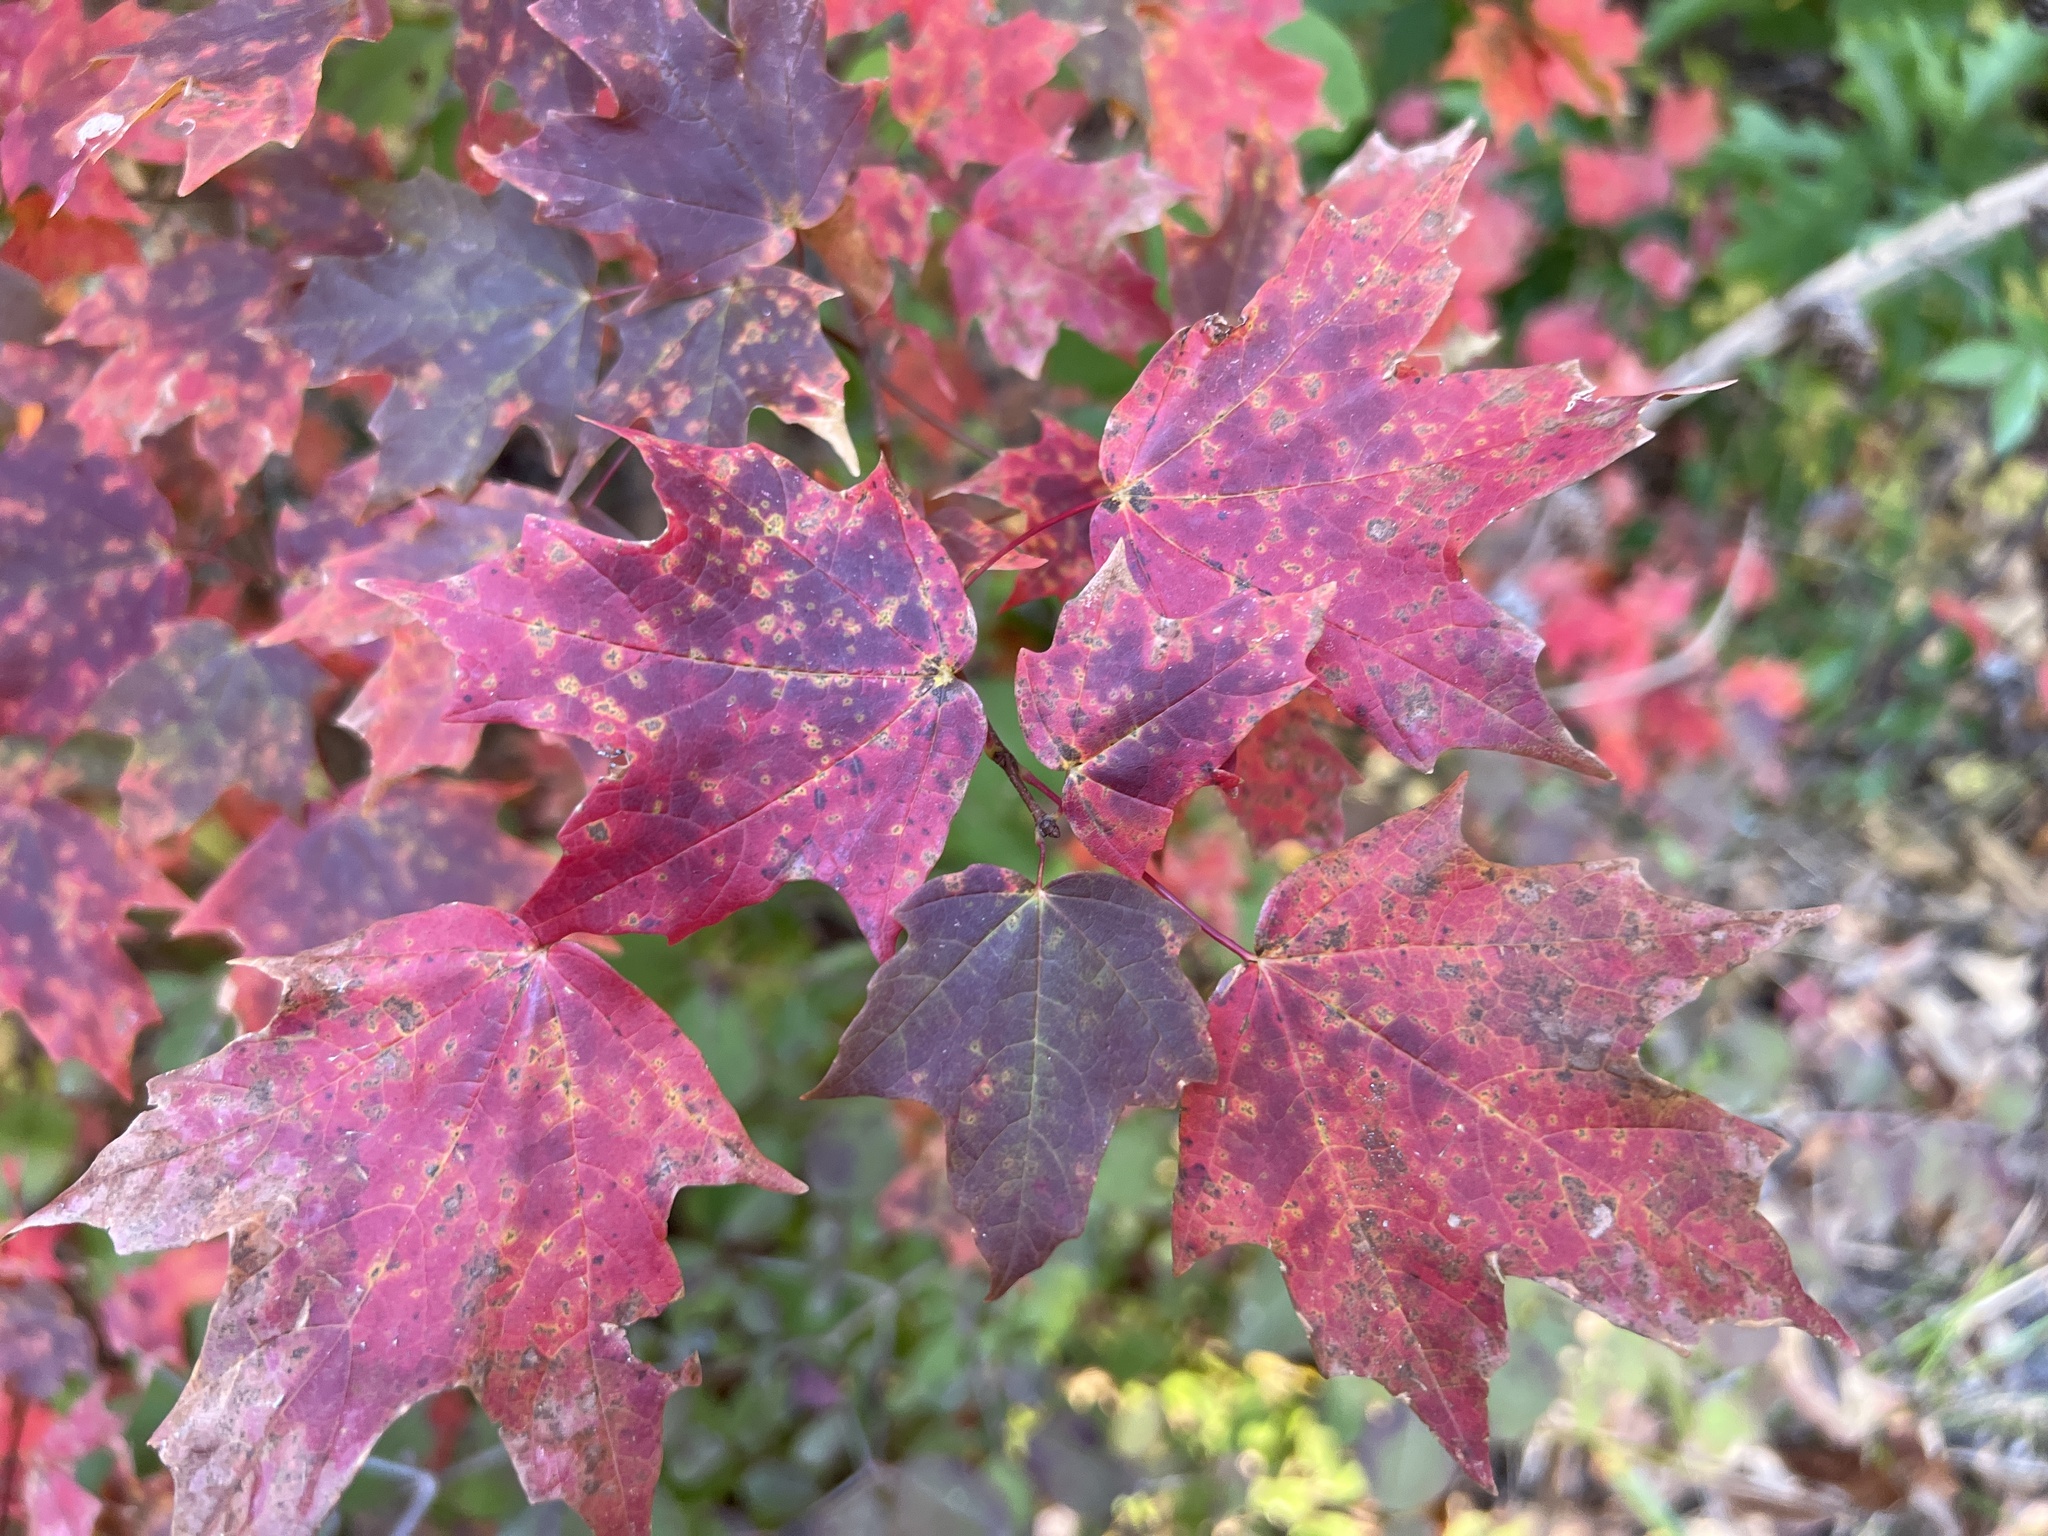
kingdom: Plantae
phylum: Tracheophyta
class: Magnoliopsida
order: Sapindales
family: Sapindaceae
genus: Acer
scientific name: Acer leucoderme
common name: Chalk maple
